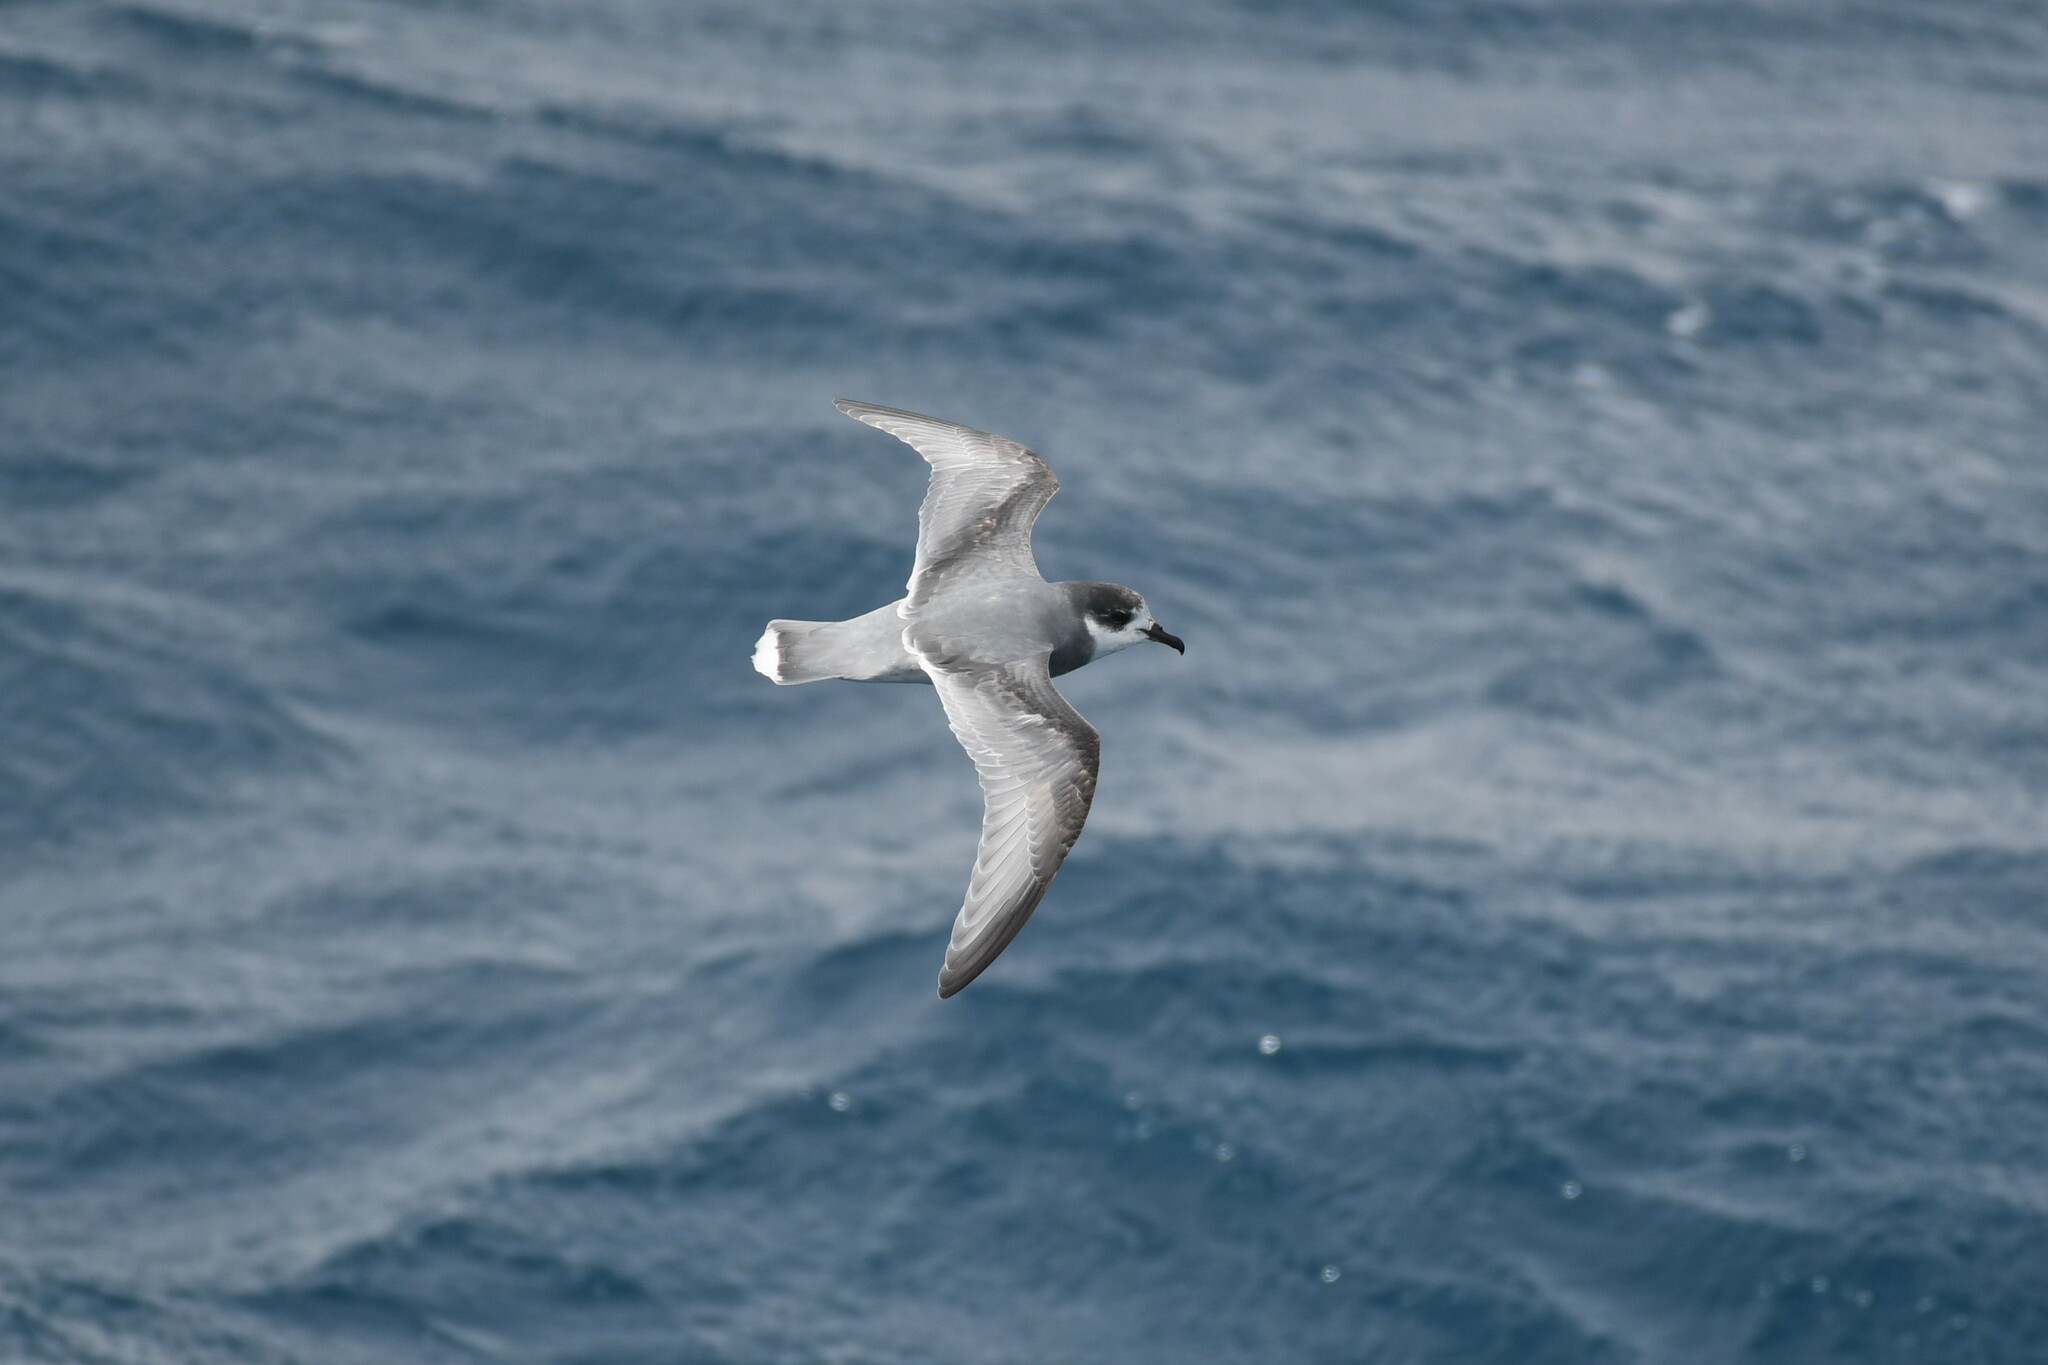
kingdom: Animalia
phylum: Chordata
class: Aves
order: Procellariiformes
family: Procellariidae
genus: Halobaena
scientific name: Halobaena caerulea
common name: Blue petrel
